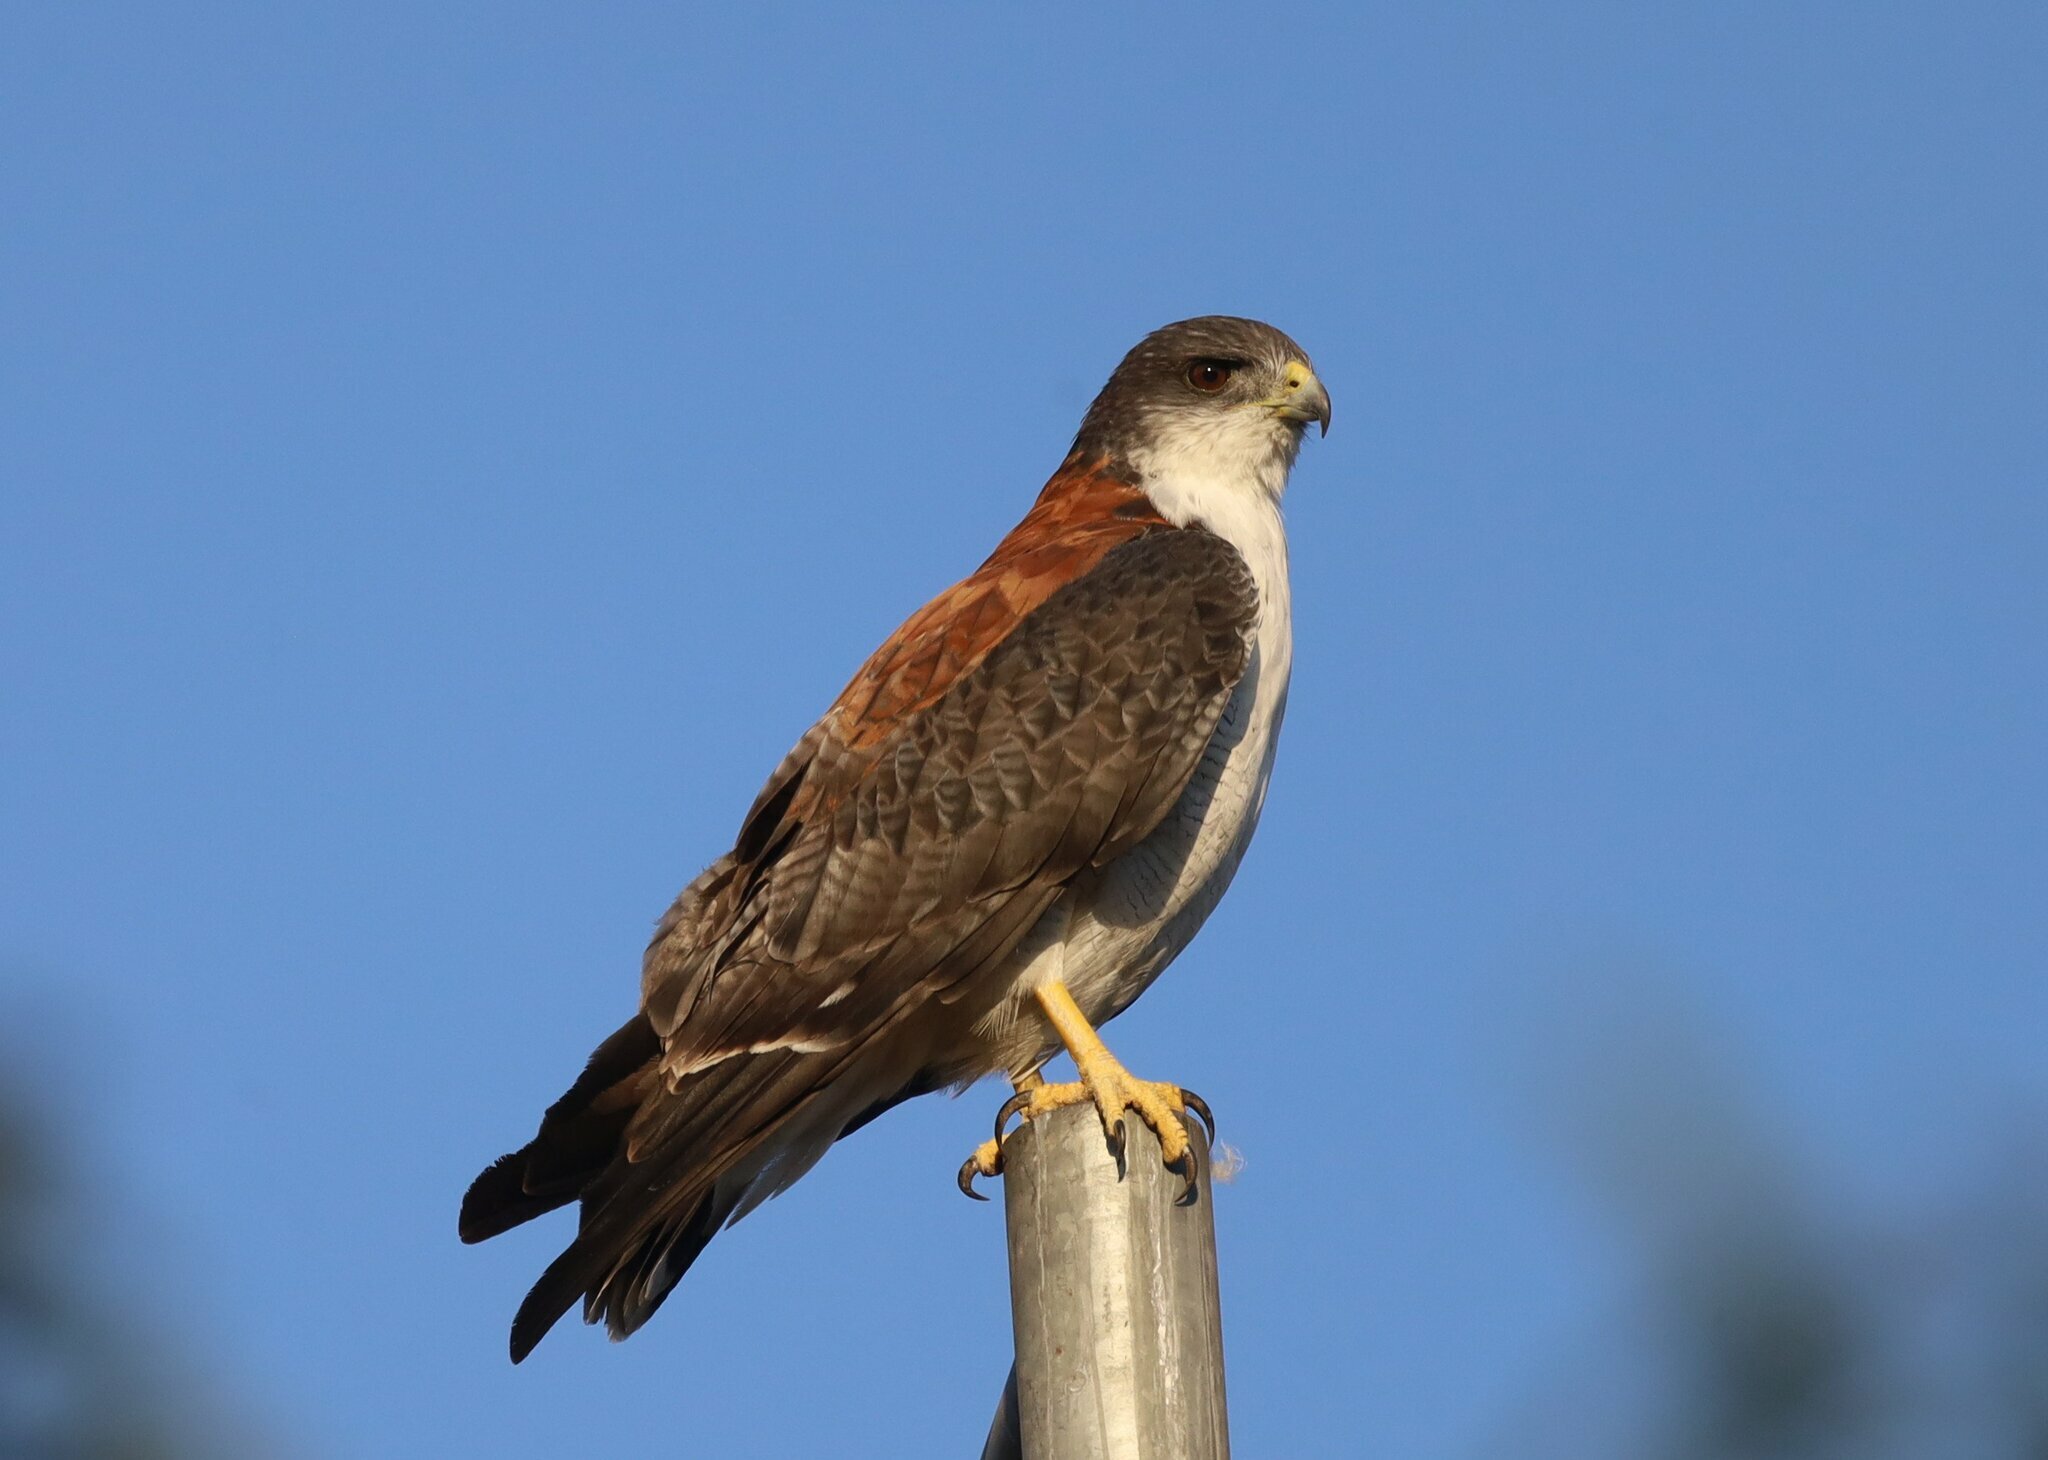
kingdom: Animalia
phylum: Chordata
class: Aves
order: Accipitriformes
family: Accipitridae
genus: Buteo
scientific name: Buteo polyosoma
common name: Variable hawk
